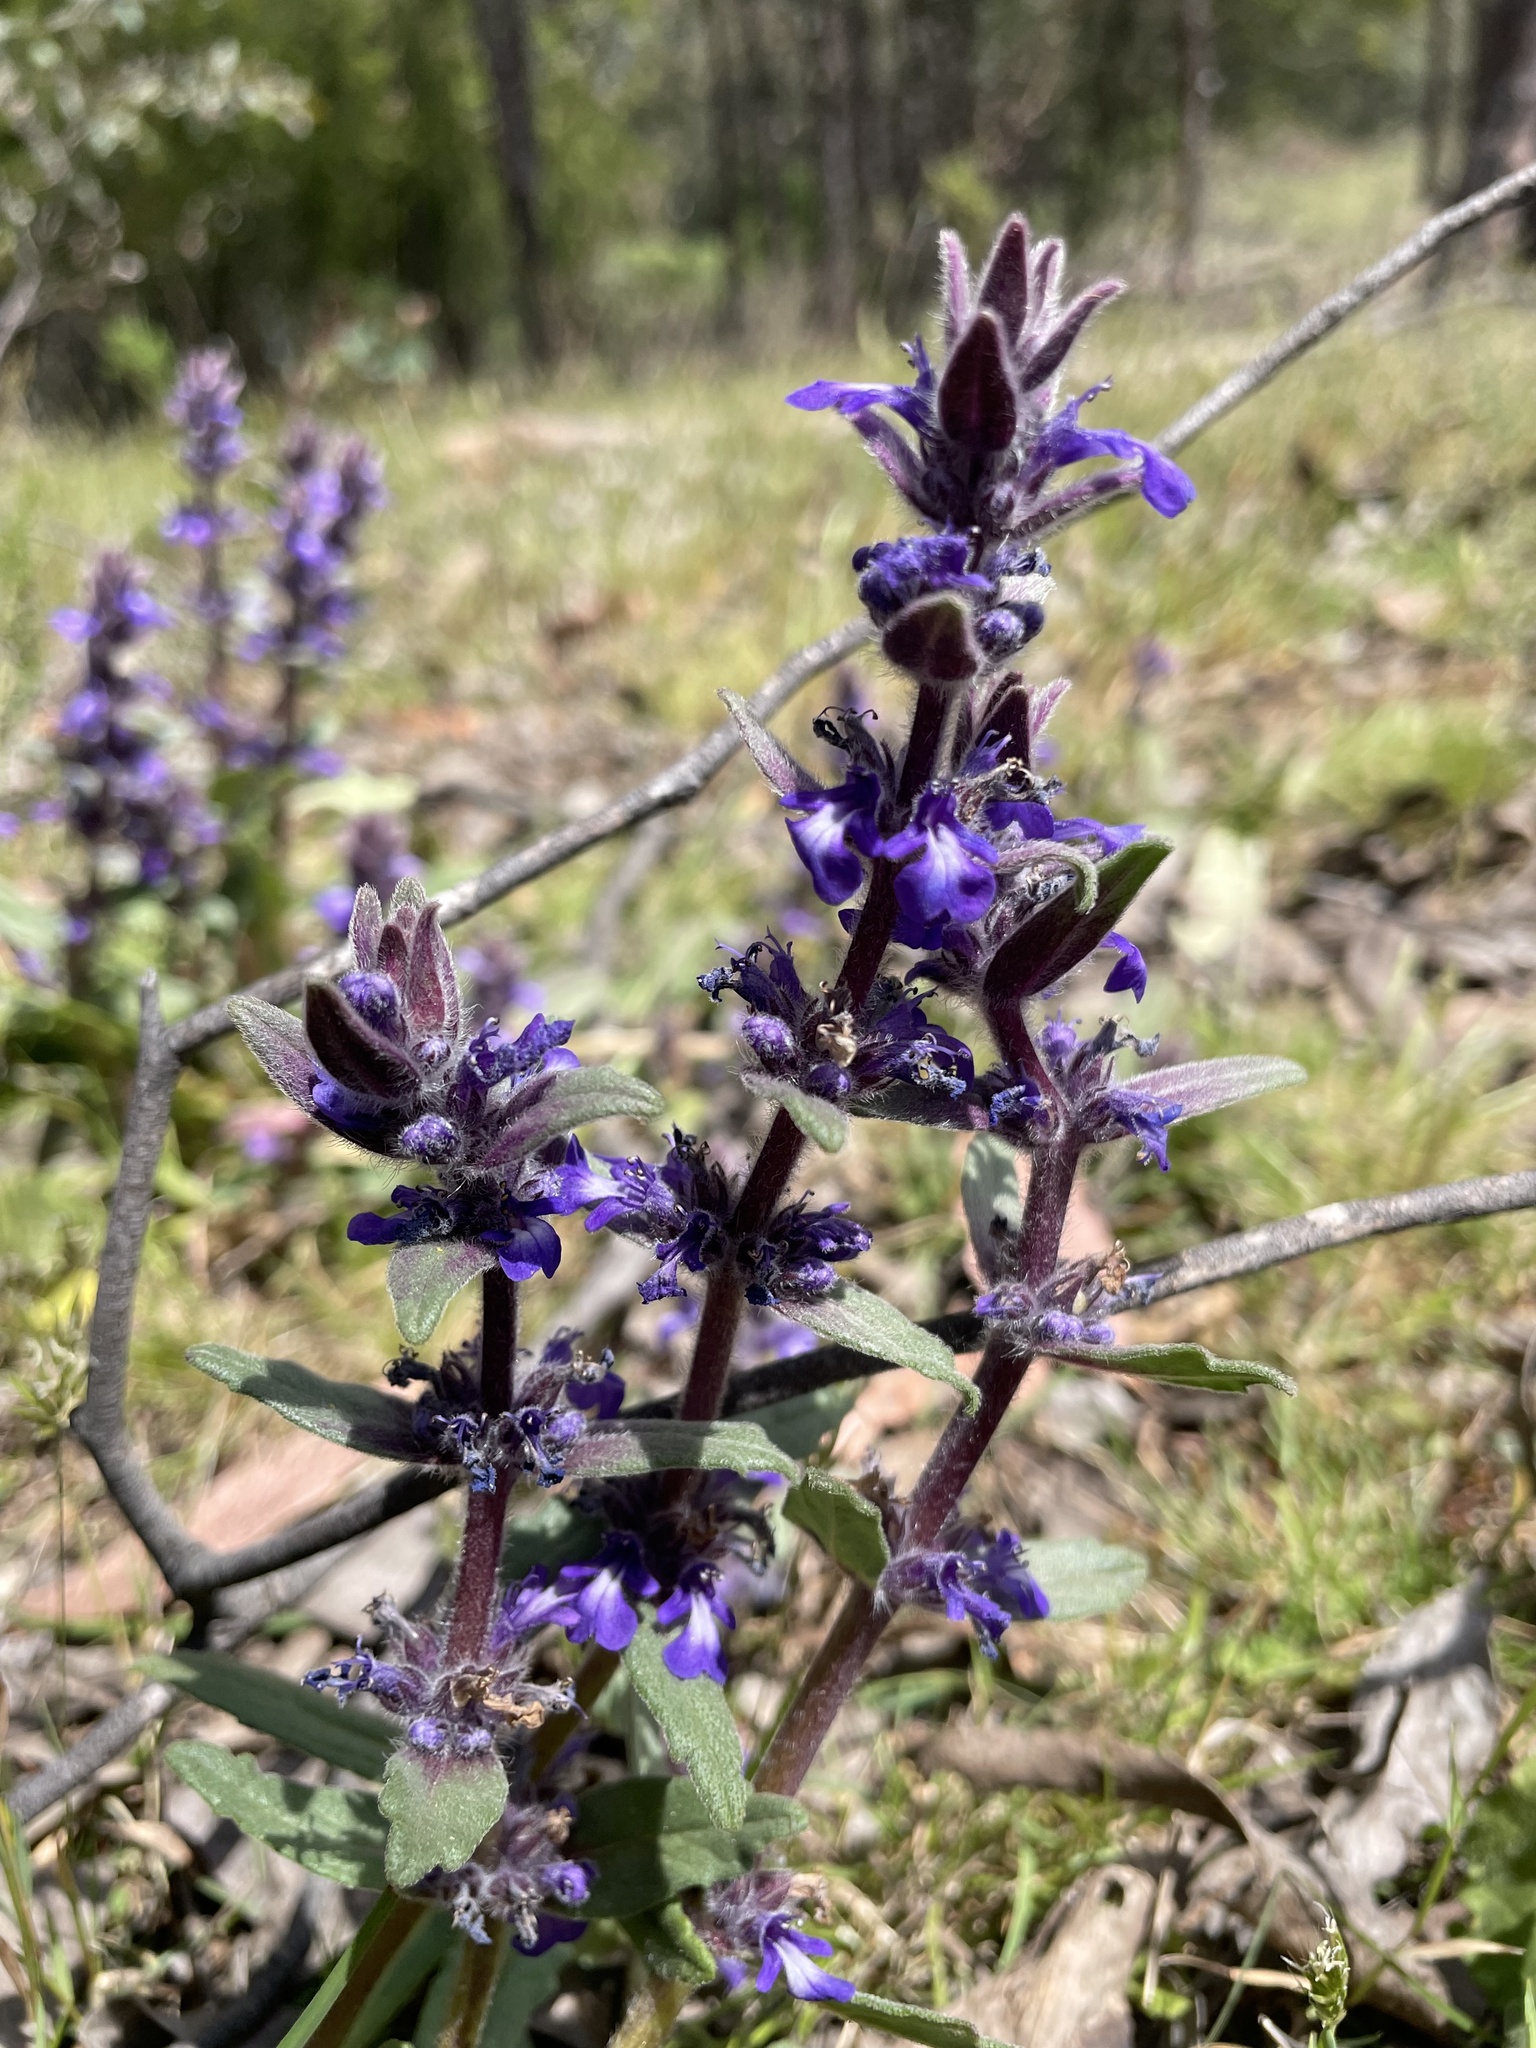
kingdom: Plantae
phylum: Tracheophyta
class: Magnoliopsida
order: Lamiales
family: Lamiaceae
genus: Ajuga
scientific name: Ajuga australis
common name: Australian bugle
